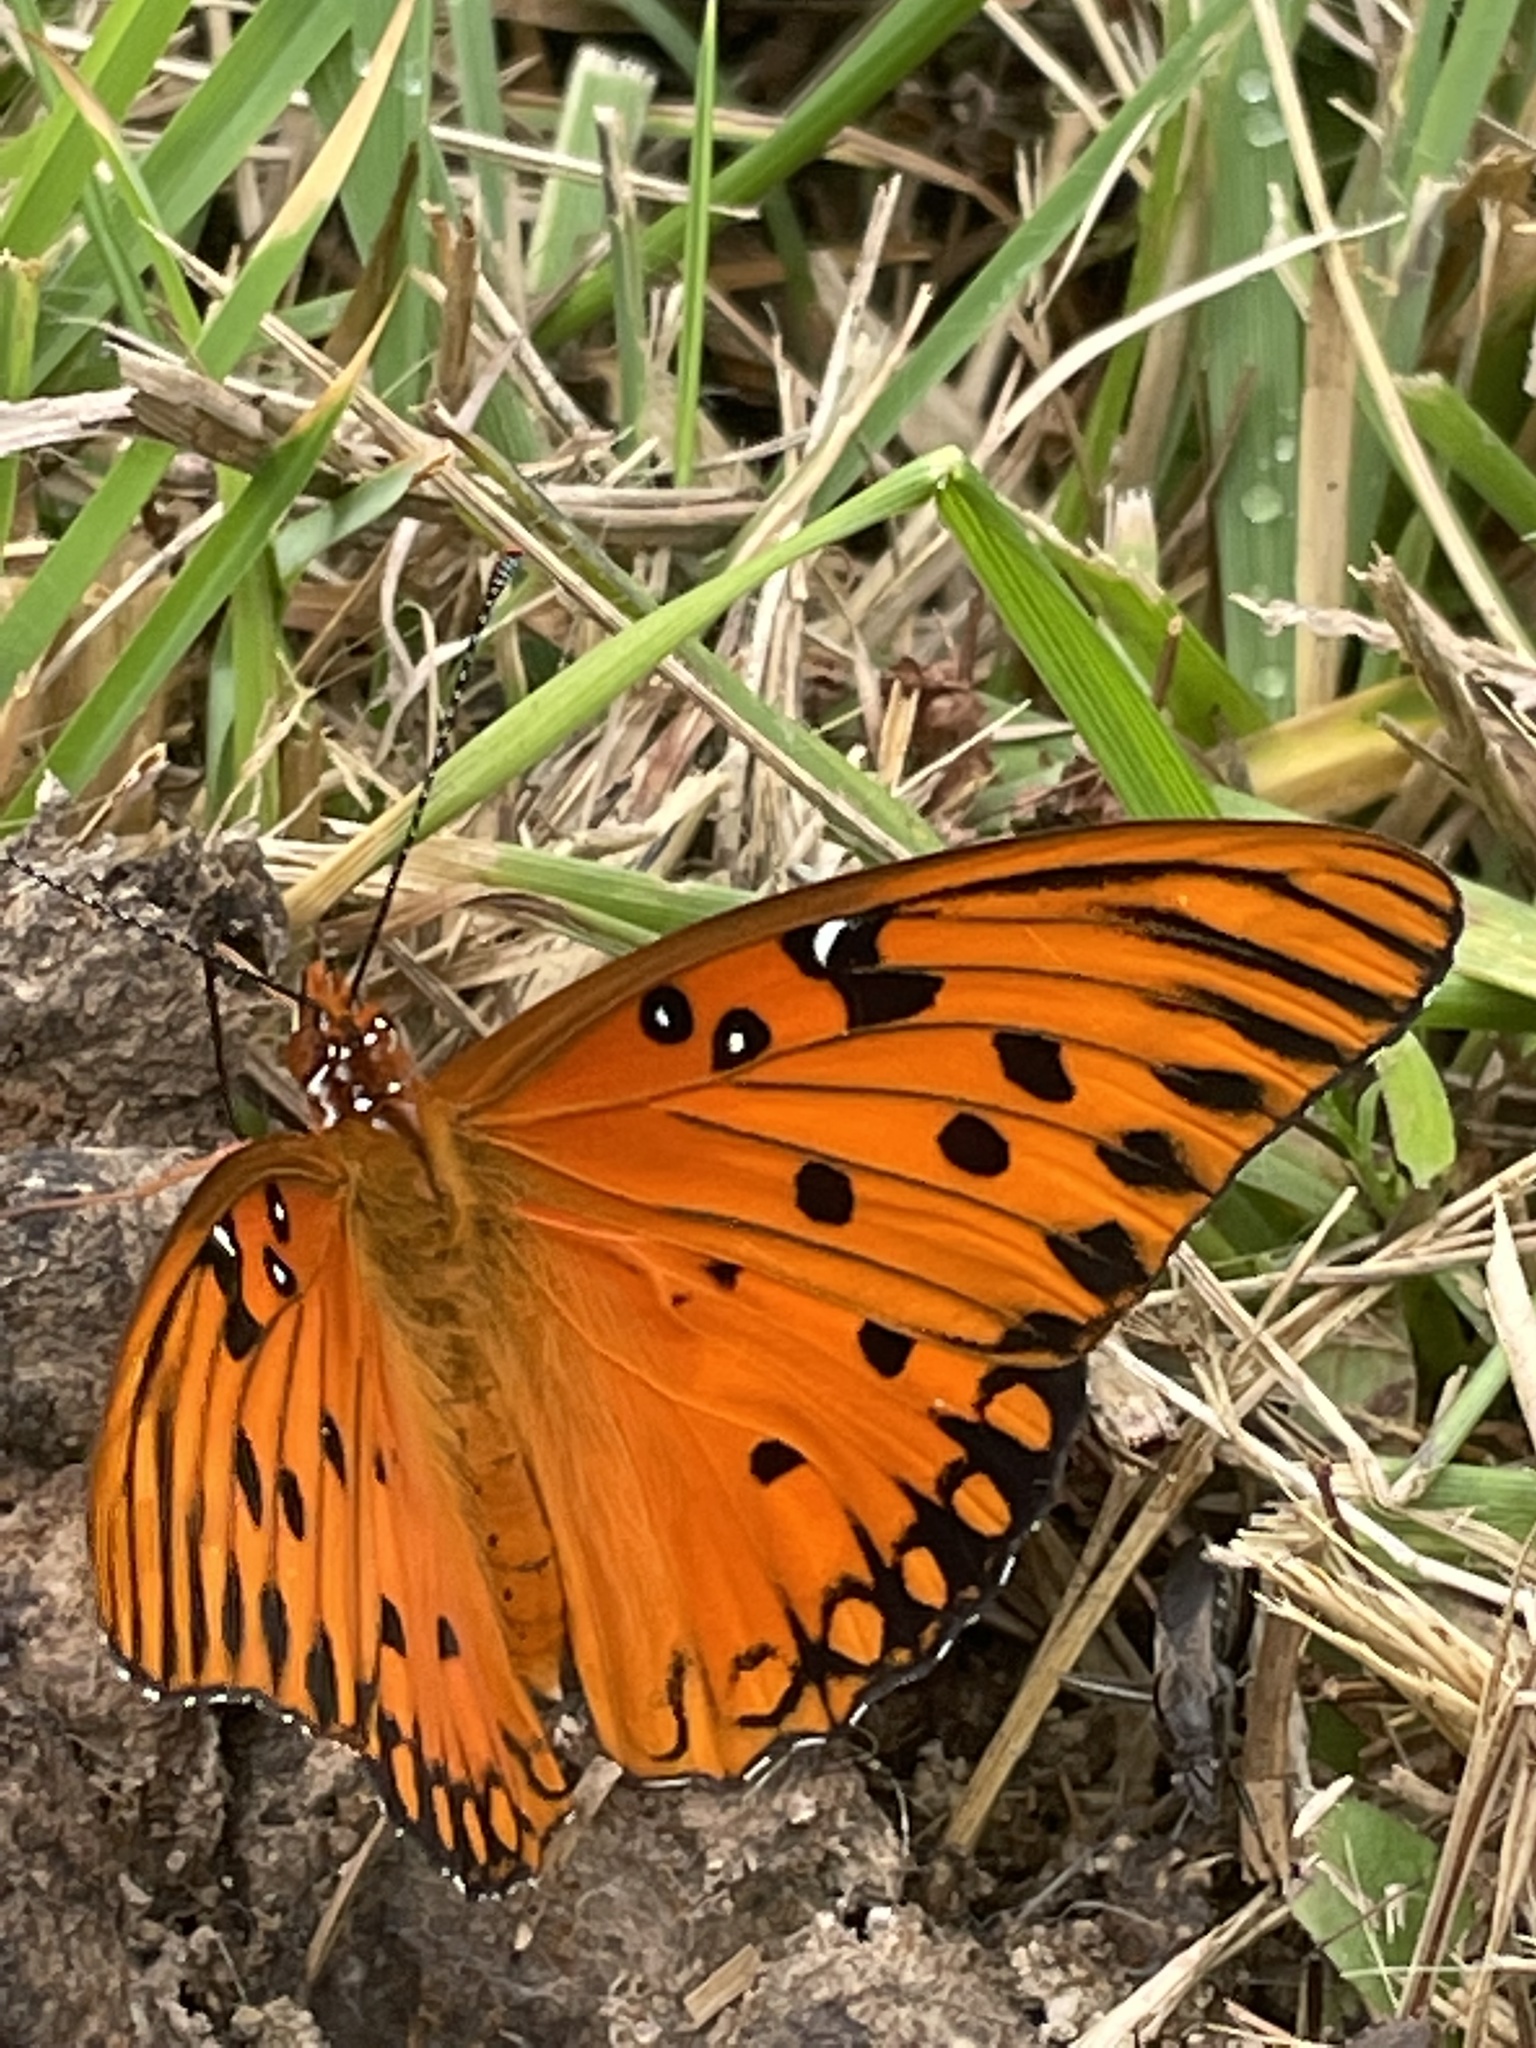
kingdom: Animalia
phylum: Arthropoda
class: Insecta
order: Lepidoptera
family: Nymphalidae
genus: Dione
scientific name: Dione vanillae
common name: Gulf fritillary
